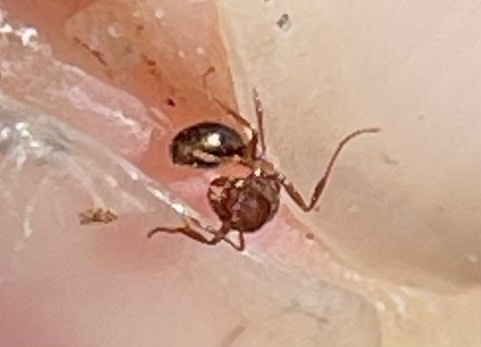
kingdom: Animalia
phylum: Arthropoda
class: Insecta
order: Hymenoptera
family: Formicidae
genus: Solenopsis
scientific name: Solenopsis invicta
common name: Red imported fire ant
